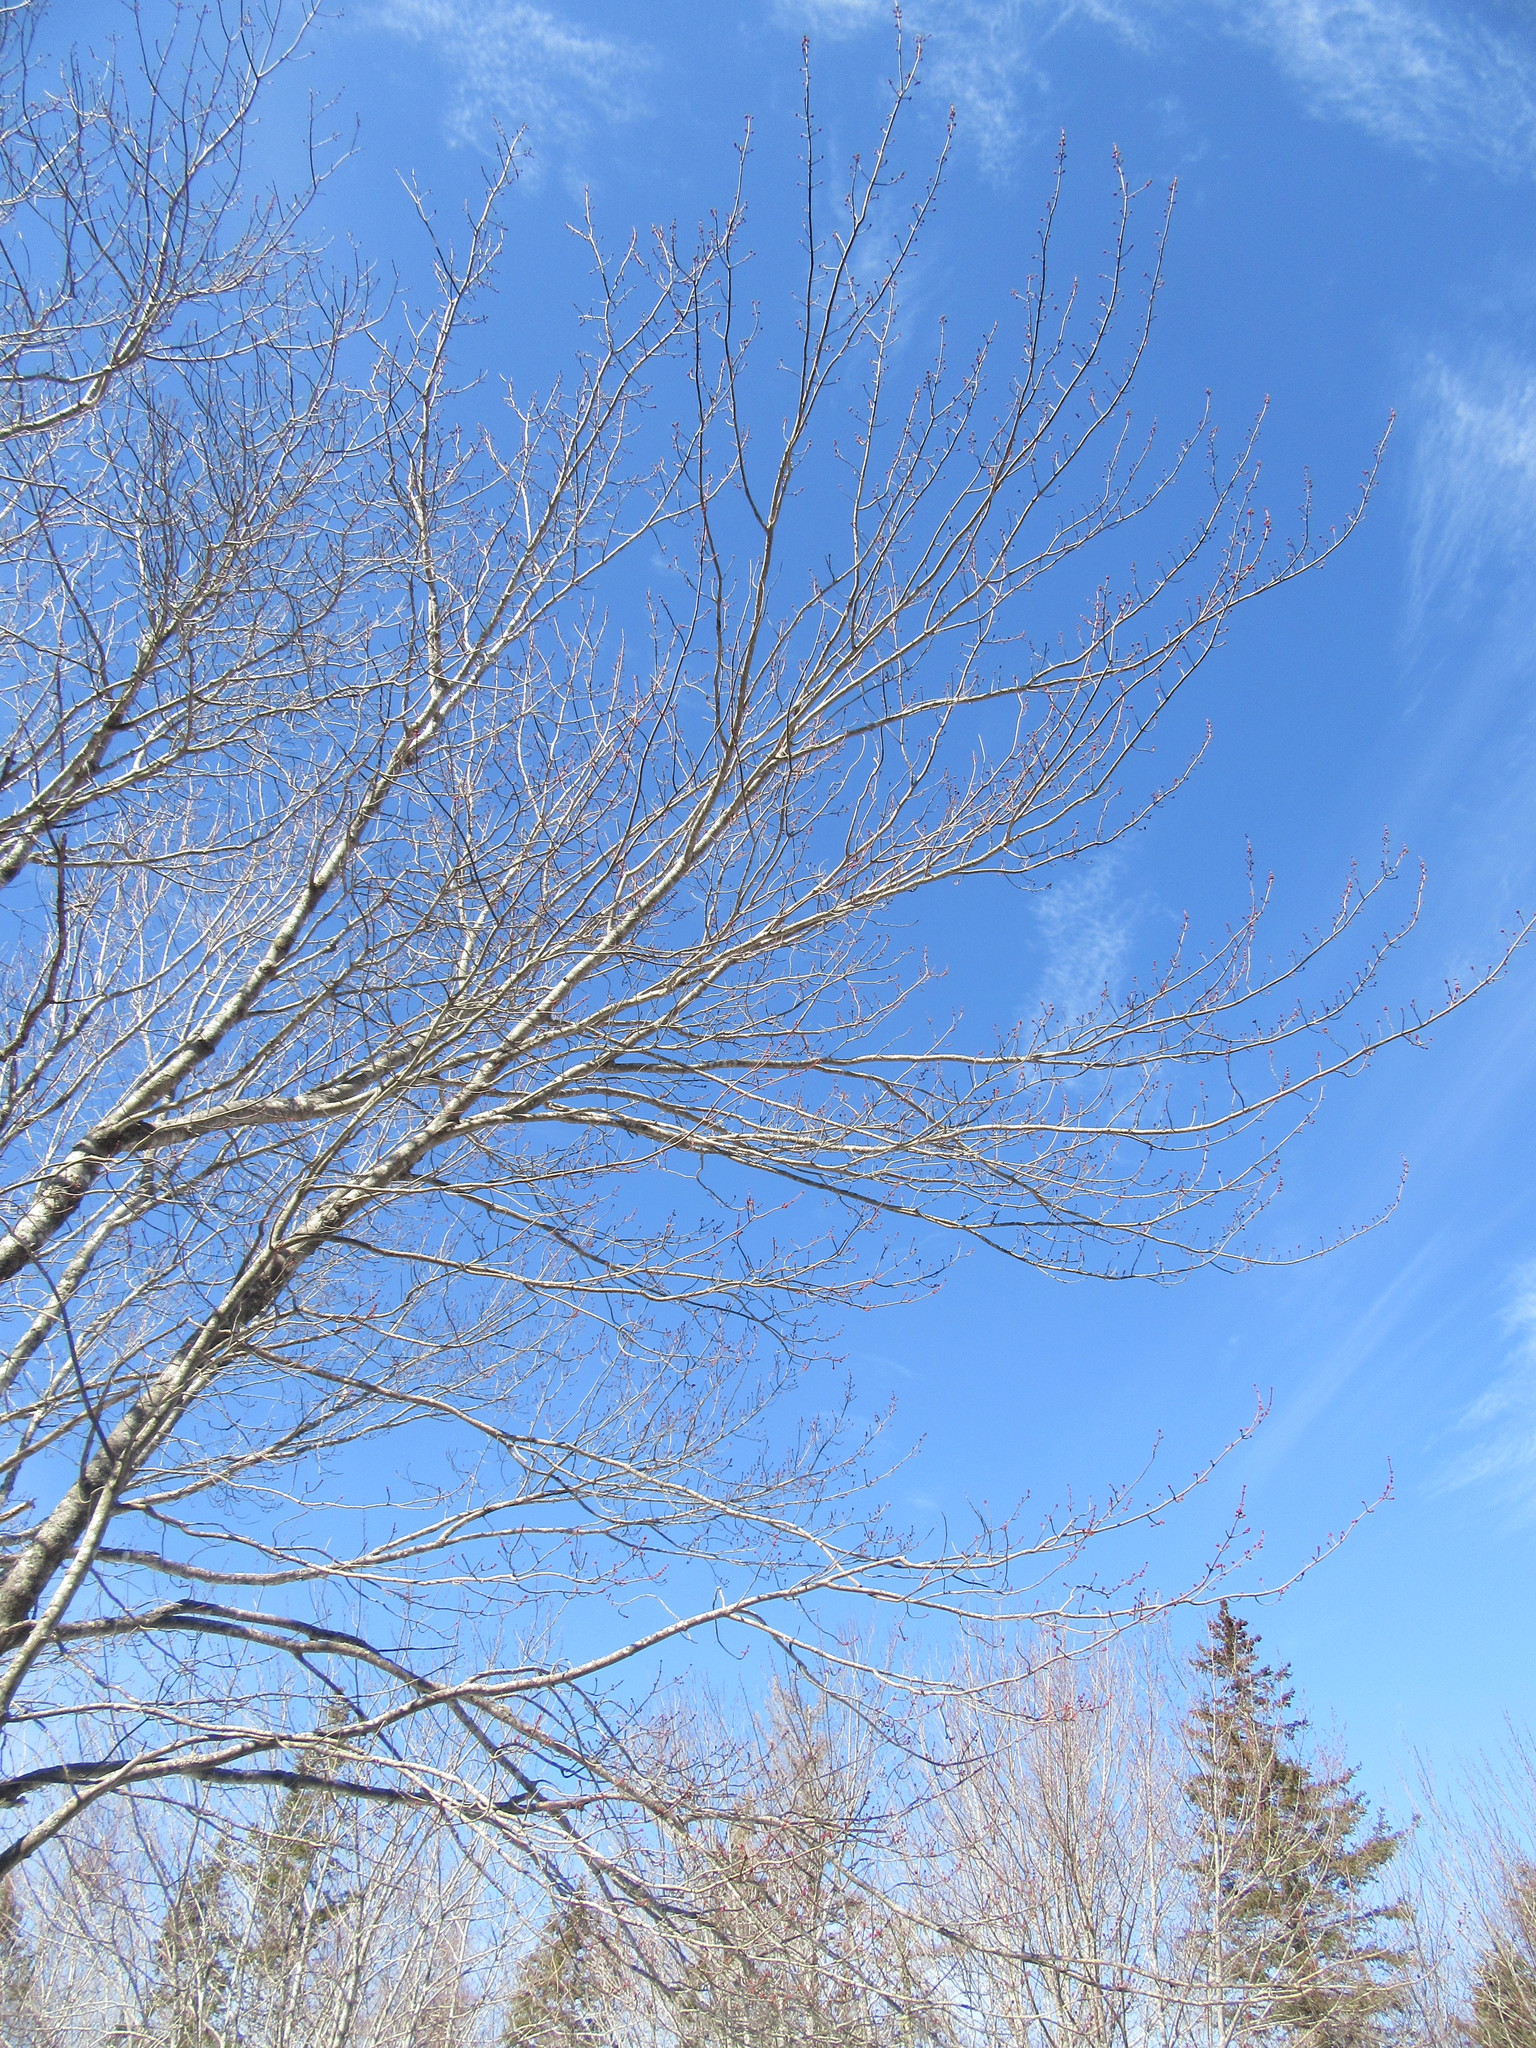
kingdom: Plantae
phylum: Tracheophyta
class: Magnoliopsida
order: Sapindales
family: Sapindaceae
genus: Acer
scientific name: Acer rubrum
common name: Red maple
